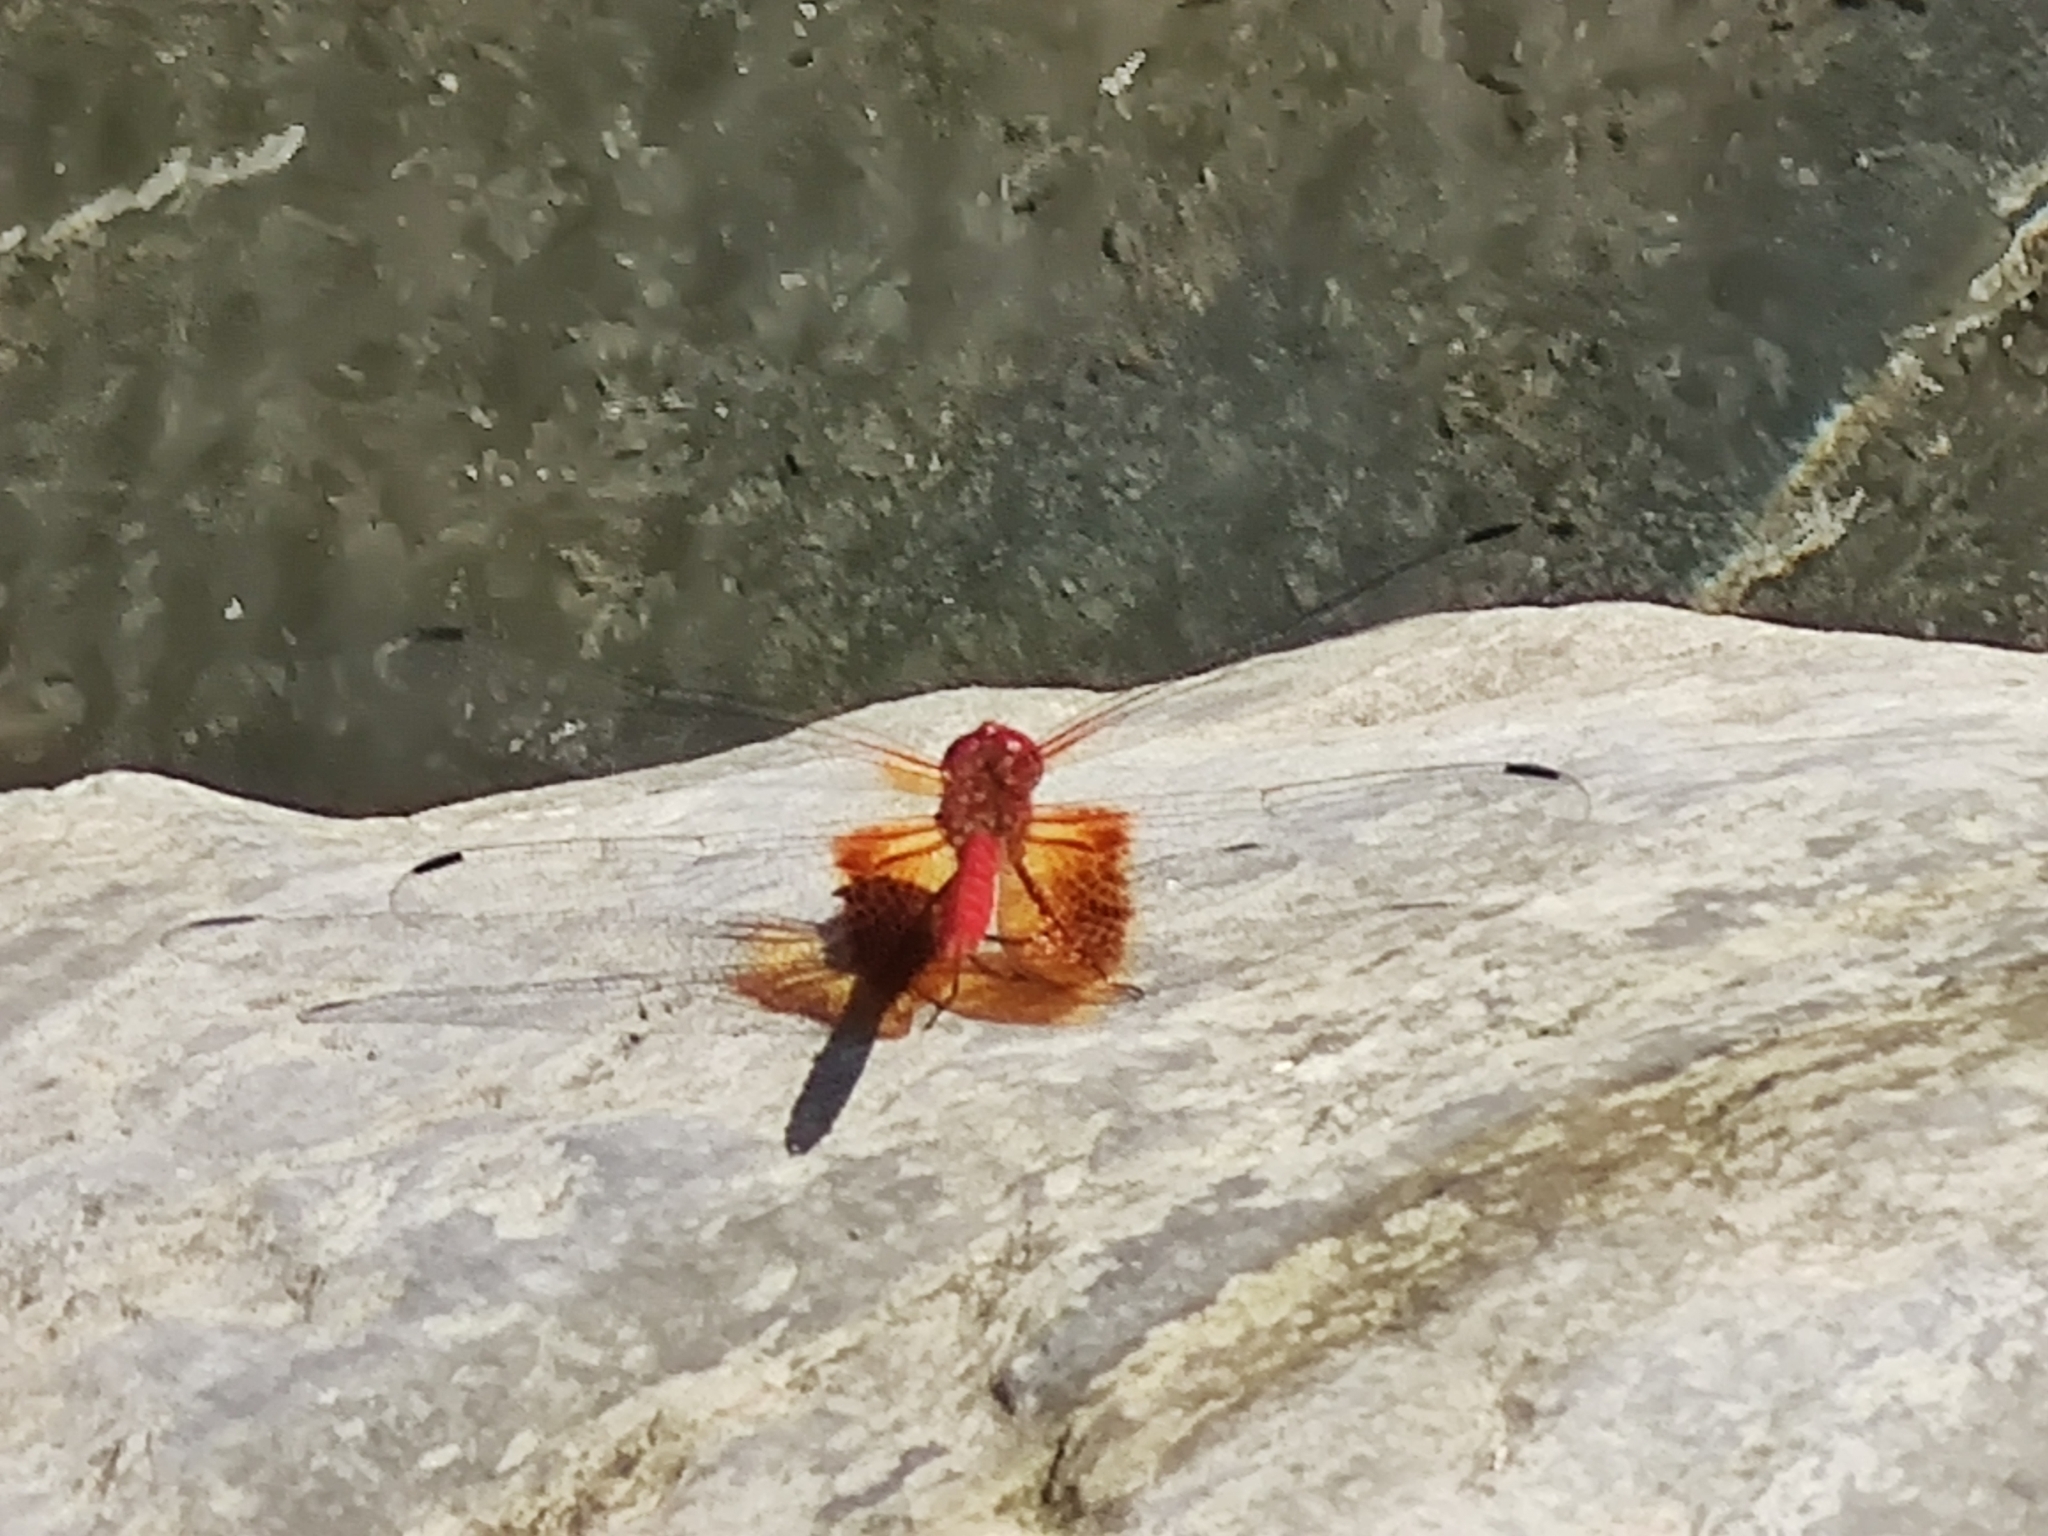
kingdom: Animalia
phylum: Arthropoda
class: Insecta
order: Odonata
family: Libellulidae
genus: Dythemis
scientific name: Dythemis maya
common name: Mayan setwing
